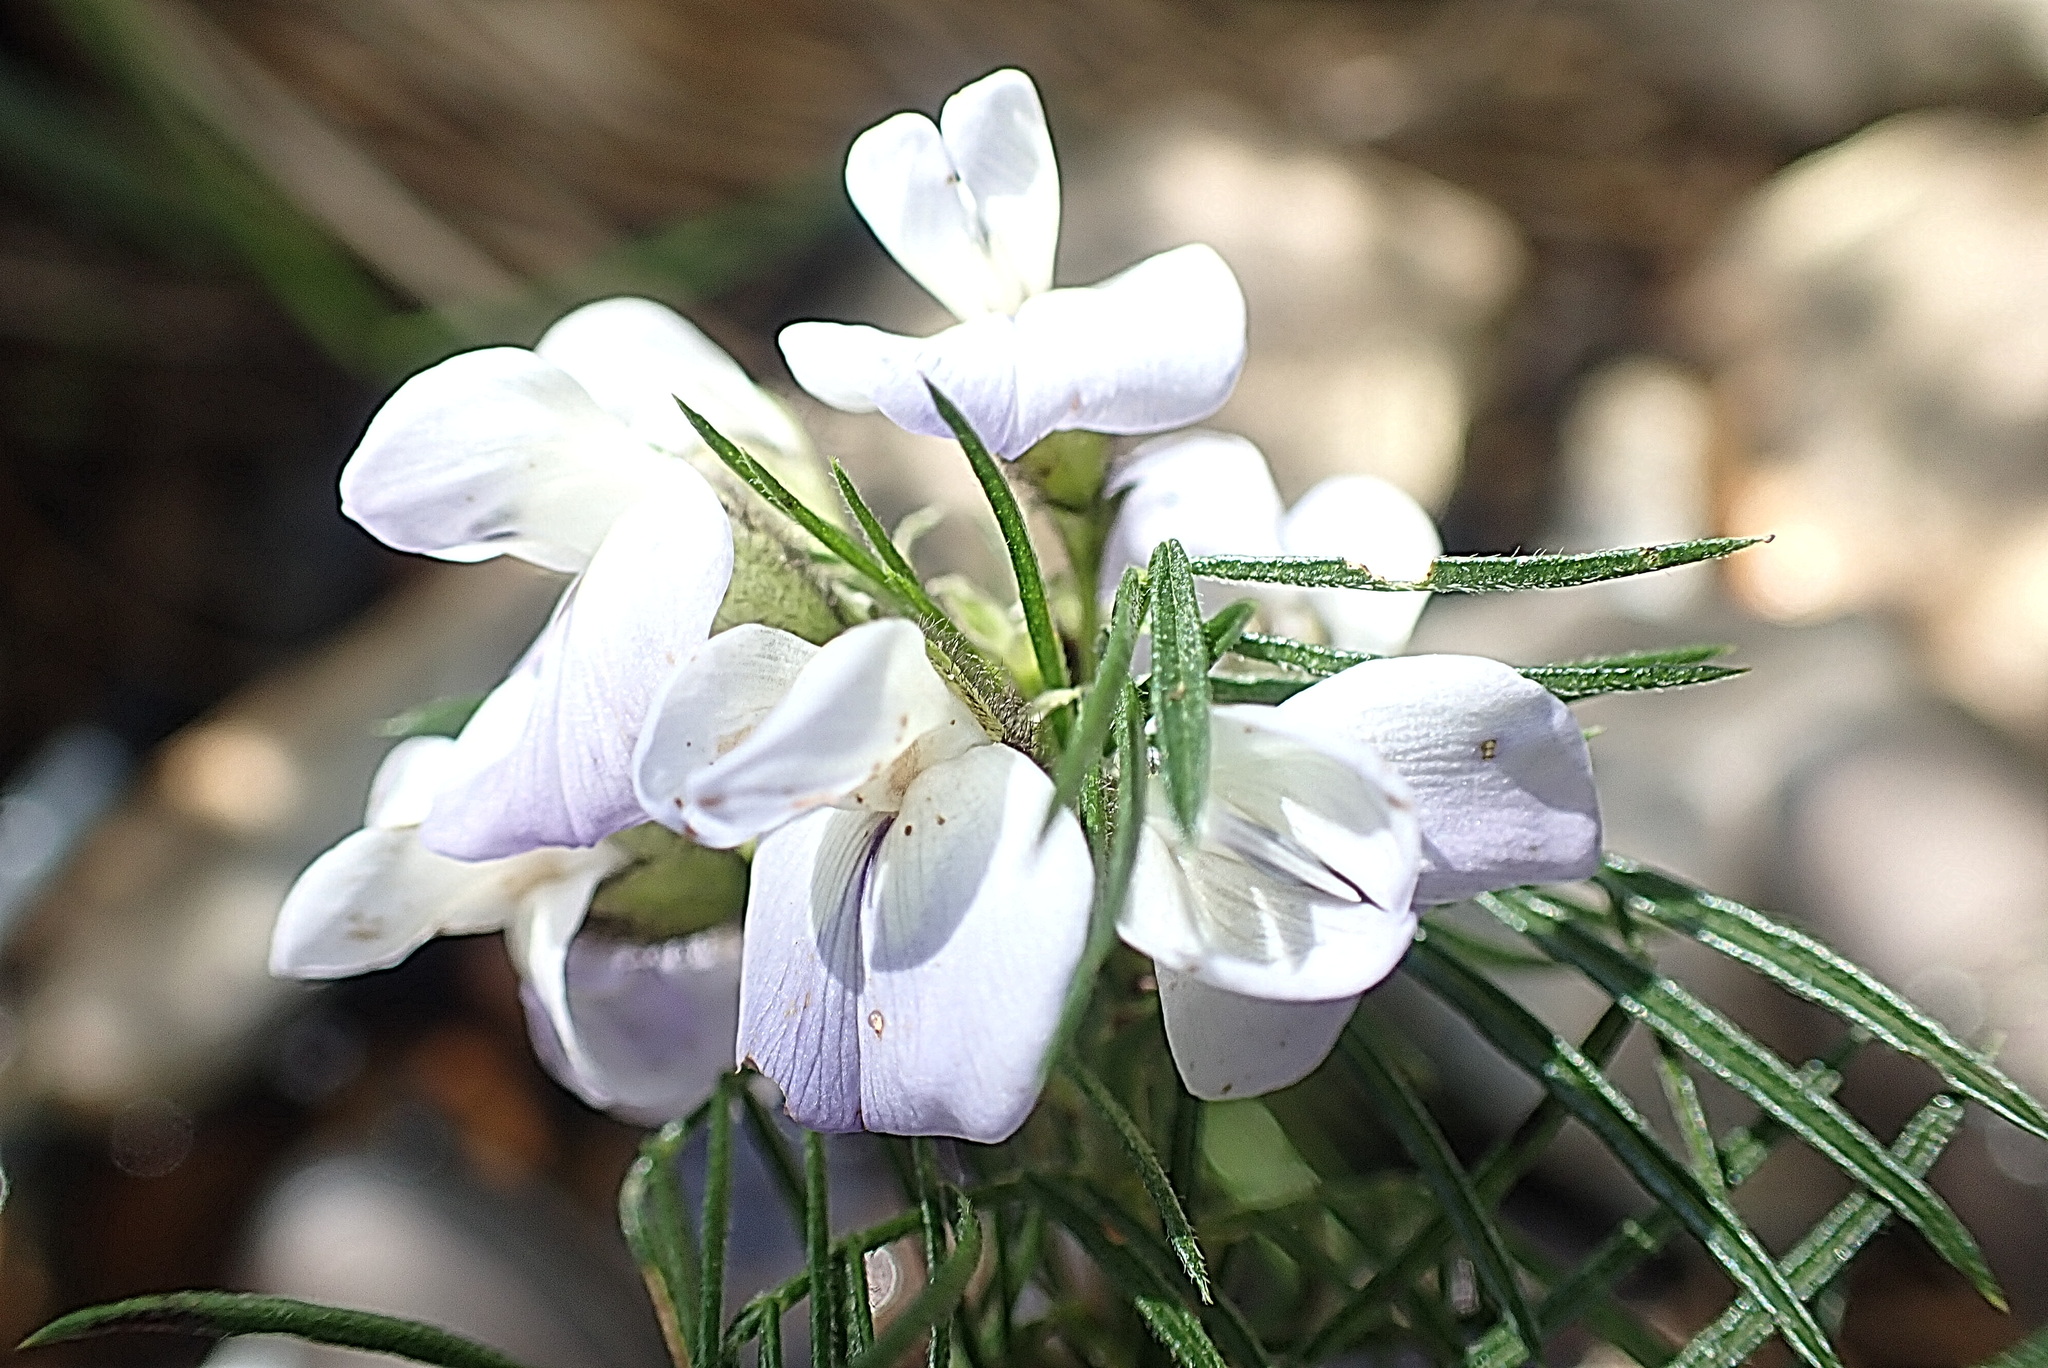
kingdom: Plantae
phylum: Tracheophyta
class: Magnoliopsida
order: Fabales
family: Fabaceae
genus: Psoralea
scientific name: Psoralea affinis
